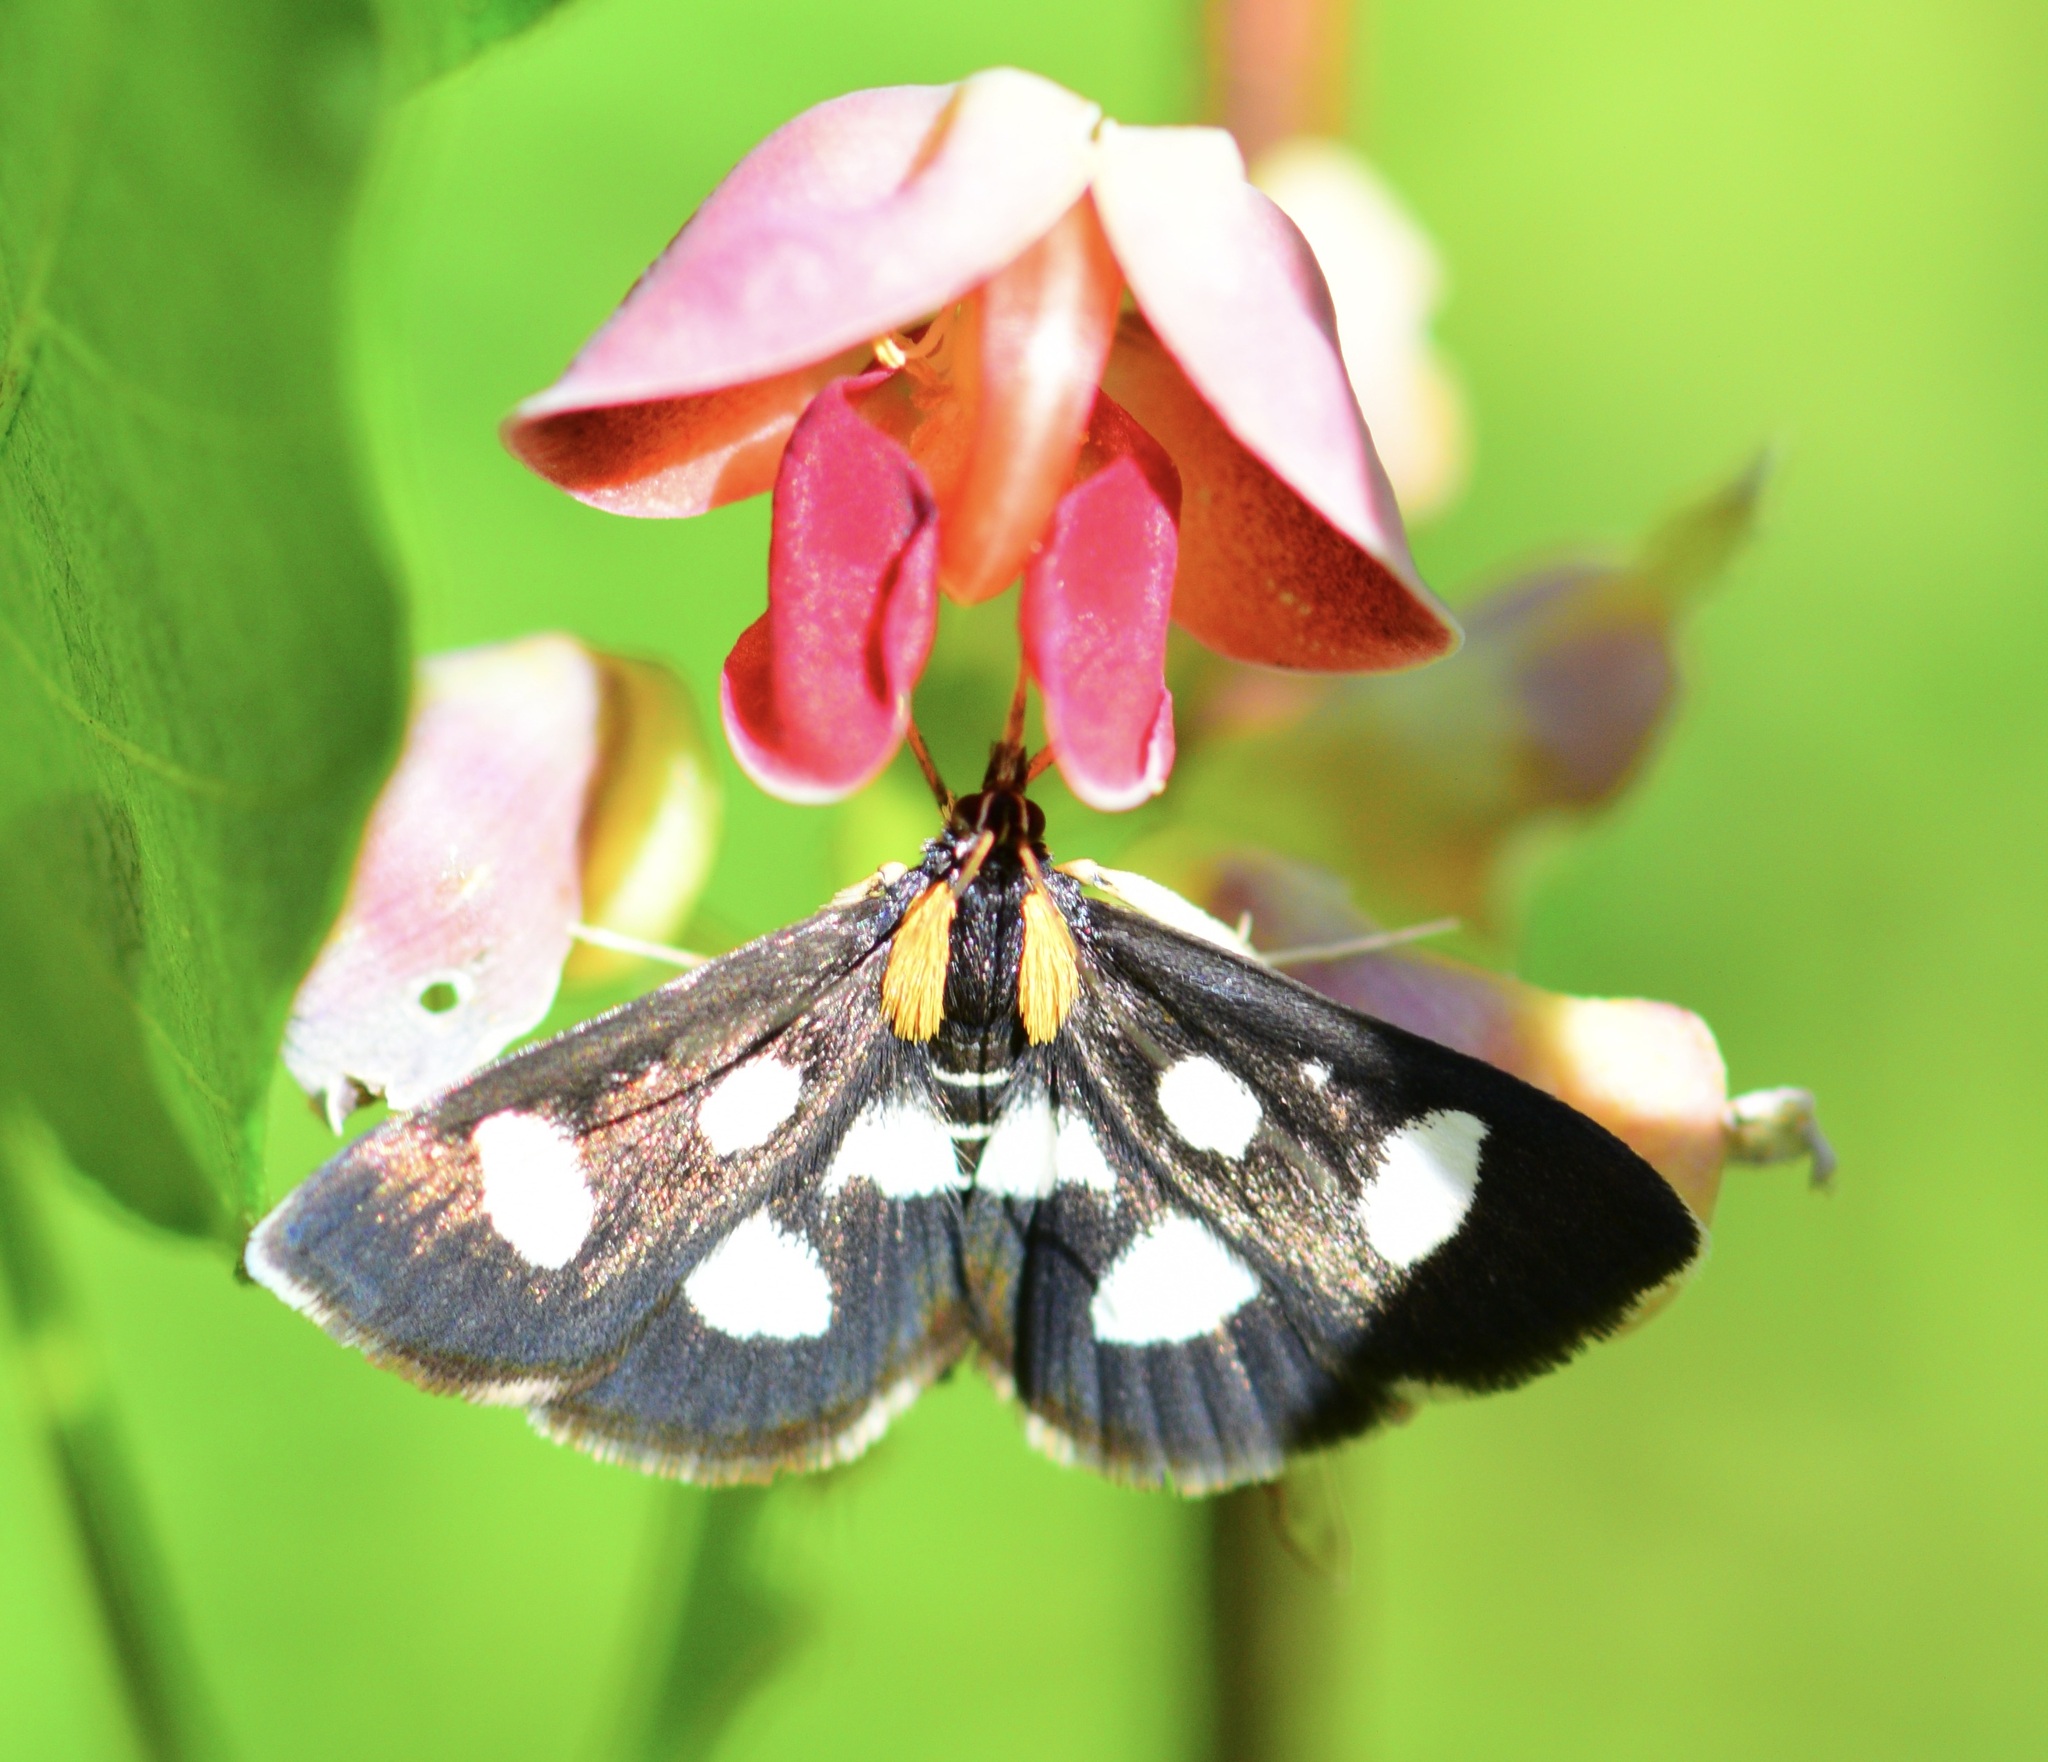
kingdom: Animalia
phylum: Arthropoda
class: Insecta
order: Lepidoptera
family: Crambidae
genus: Anania
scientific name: Anania funebris
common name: White-spotted sable moth
